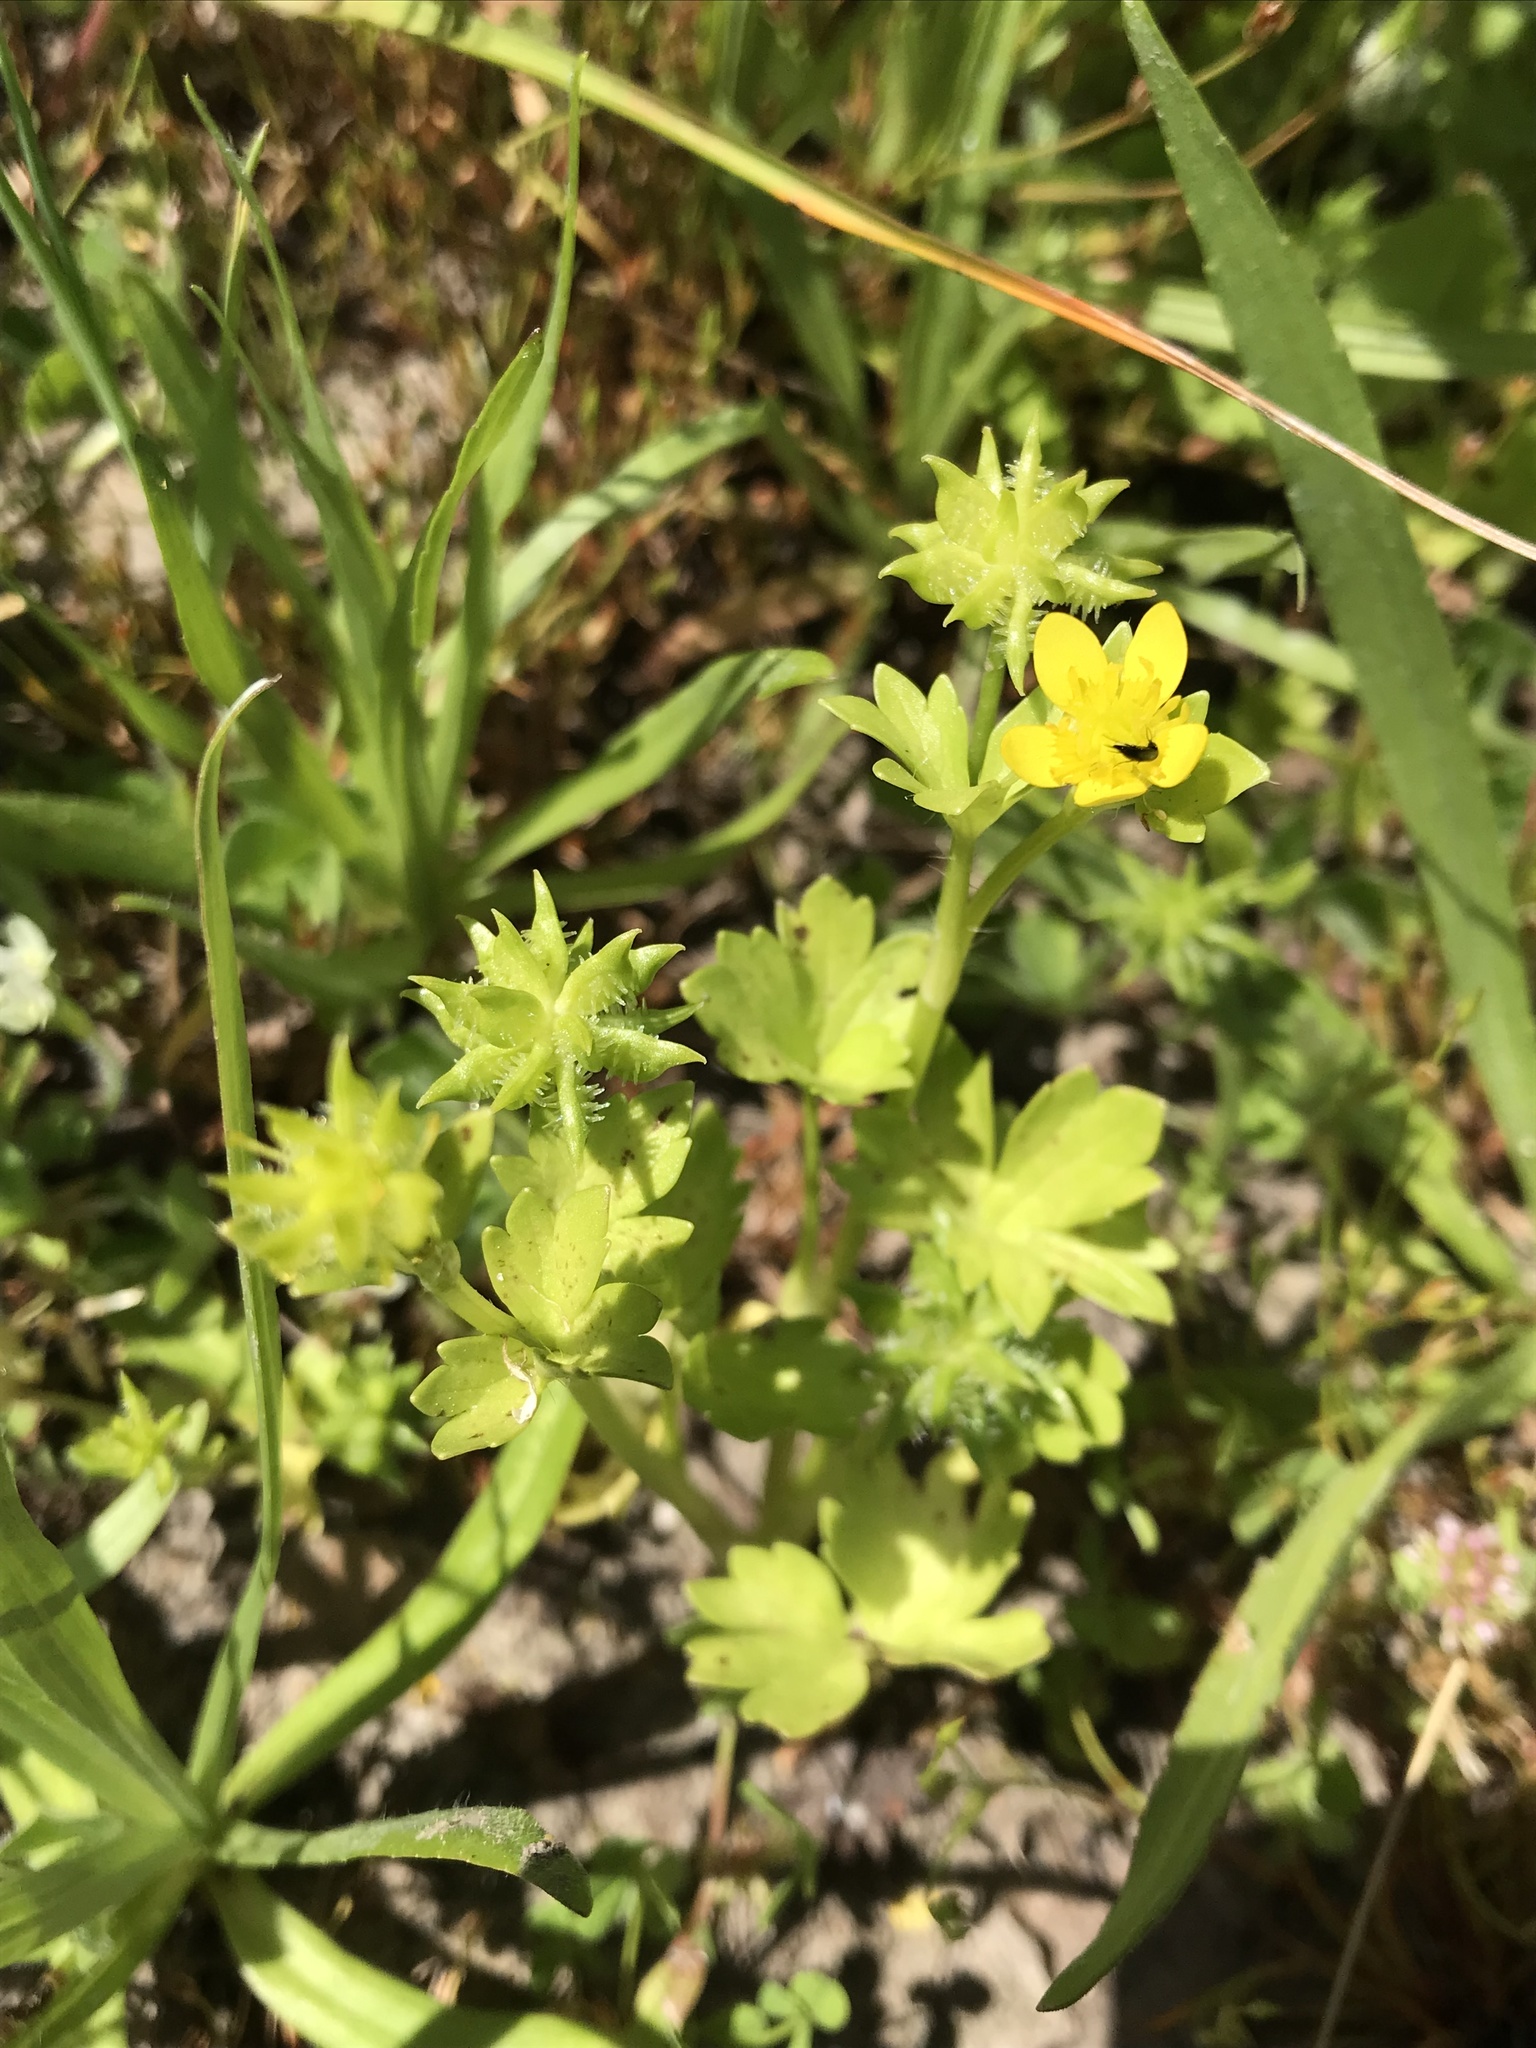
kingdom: Plantae
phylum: Tracheophyta
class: Magnoliopsida
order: Ranunculales
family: Ranunculaceae
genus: Ranunculus
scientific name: Ranunculus muricatus
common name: Rough-fruited buttercup
